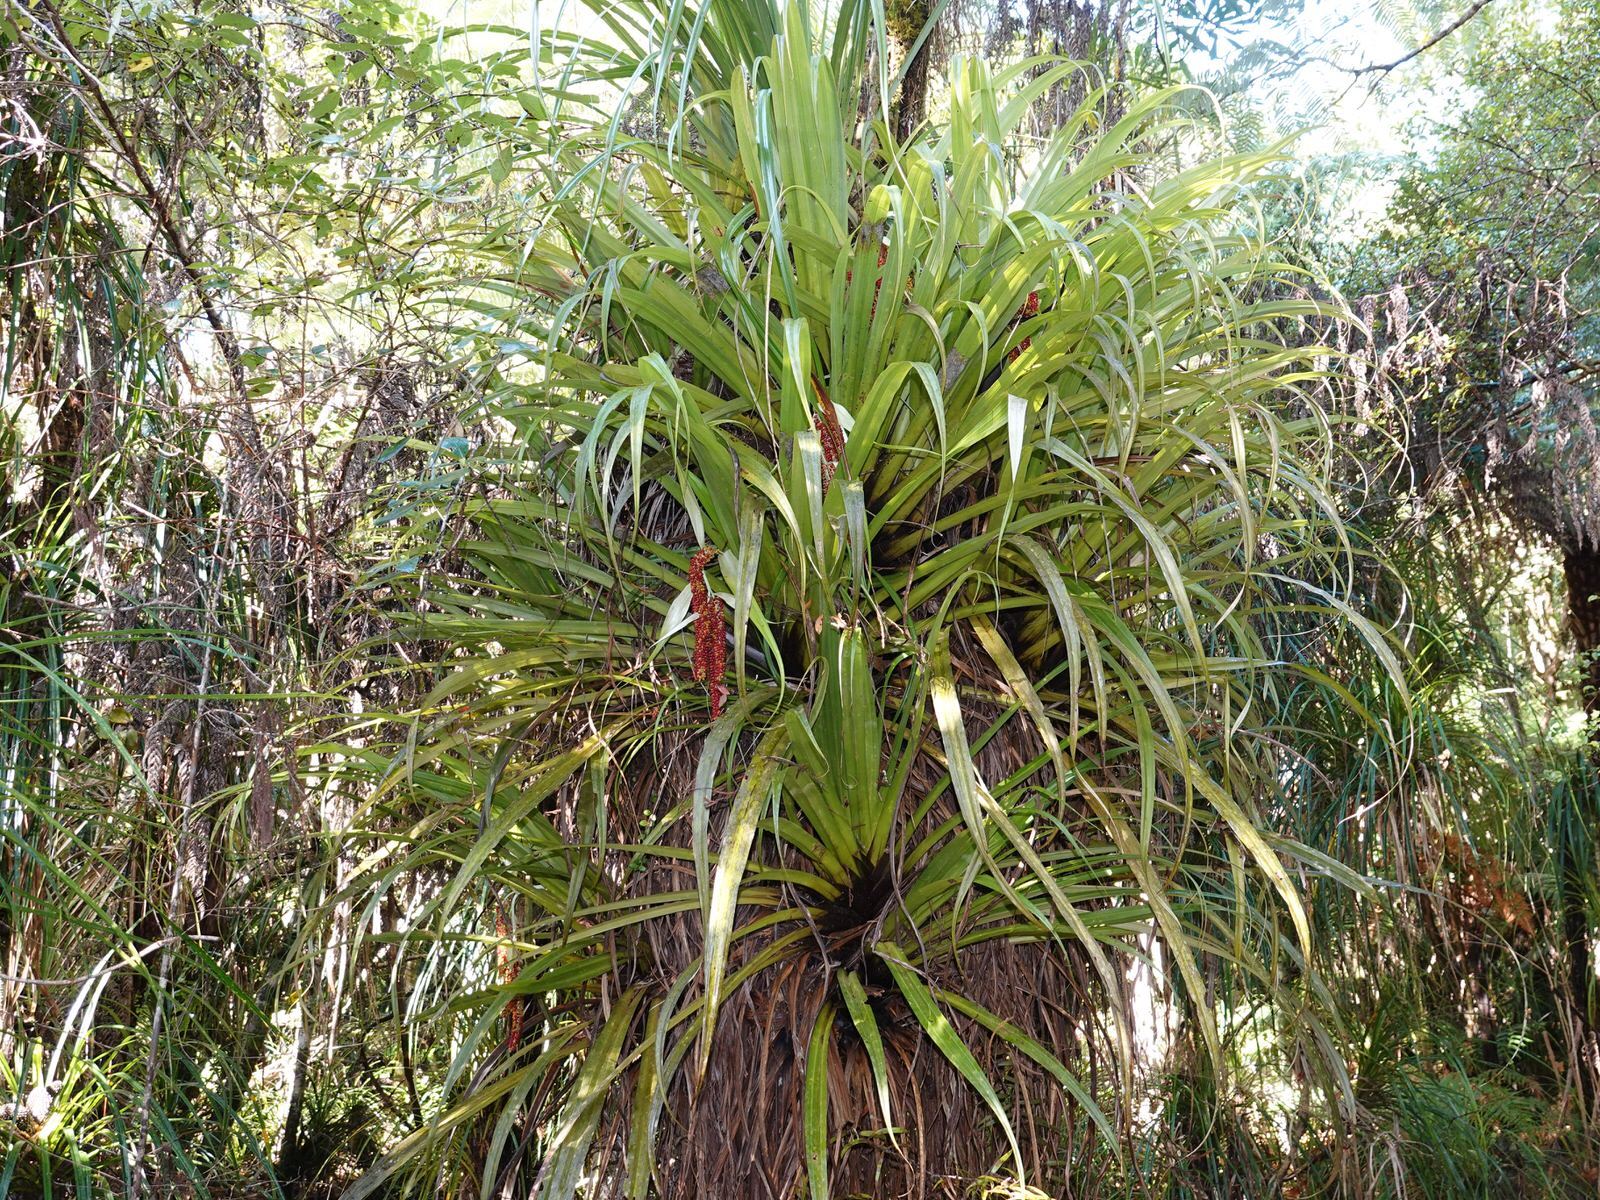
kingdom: Plantae
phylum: Tracheophyta
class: Liliopsida
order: Asparagales
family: Asteliaceae
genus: Astelia
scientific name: Astelia hastata
